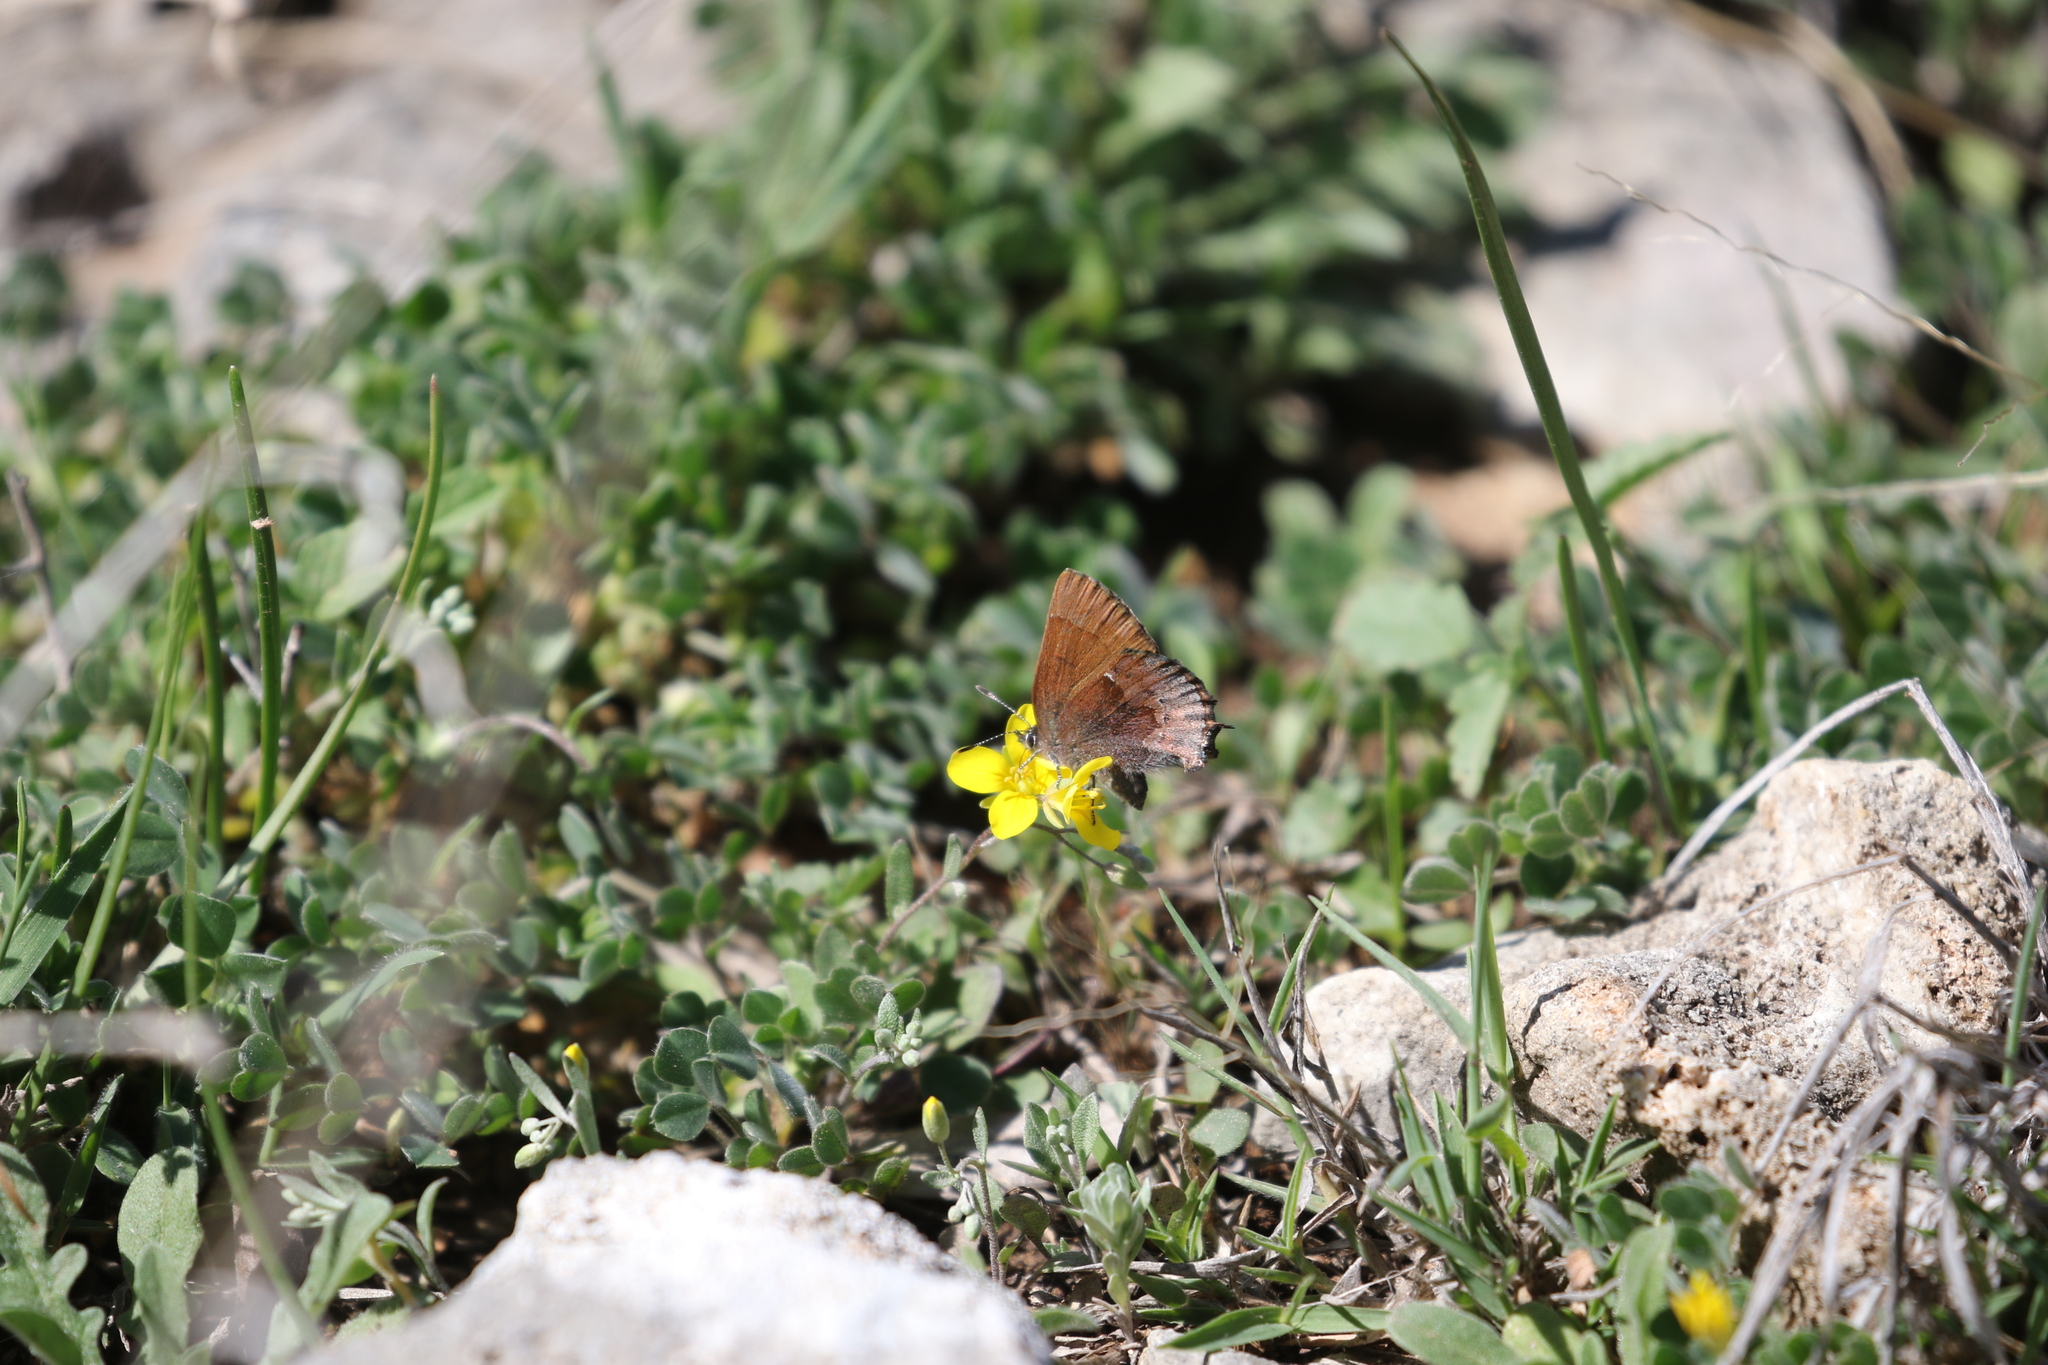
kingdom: Animalia
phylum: Arthropoda
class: Insecta
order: Lepidoptera
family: Lycaenidae
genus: Incisalia
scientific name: Incisalia henrici
